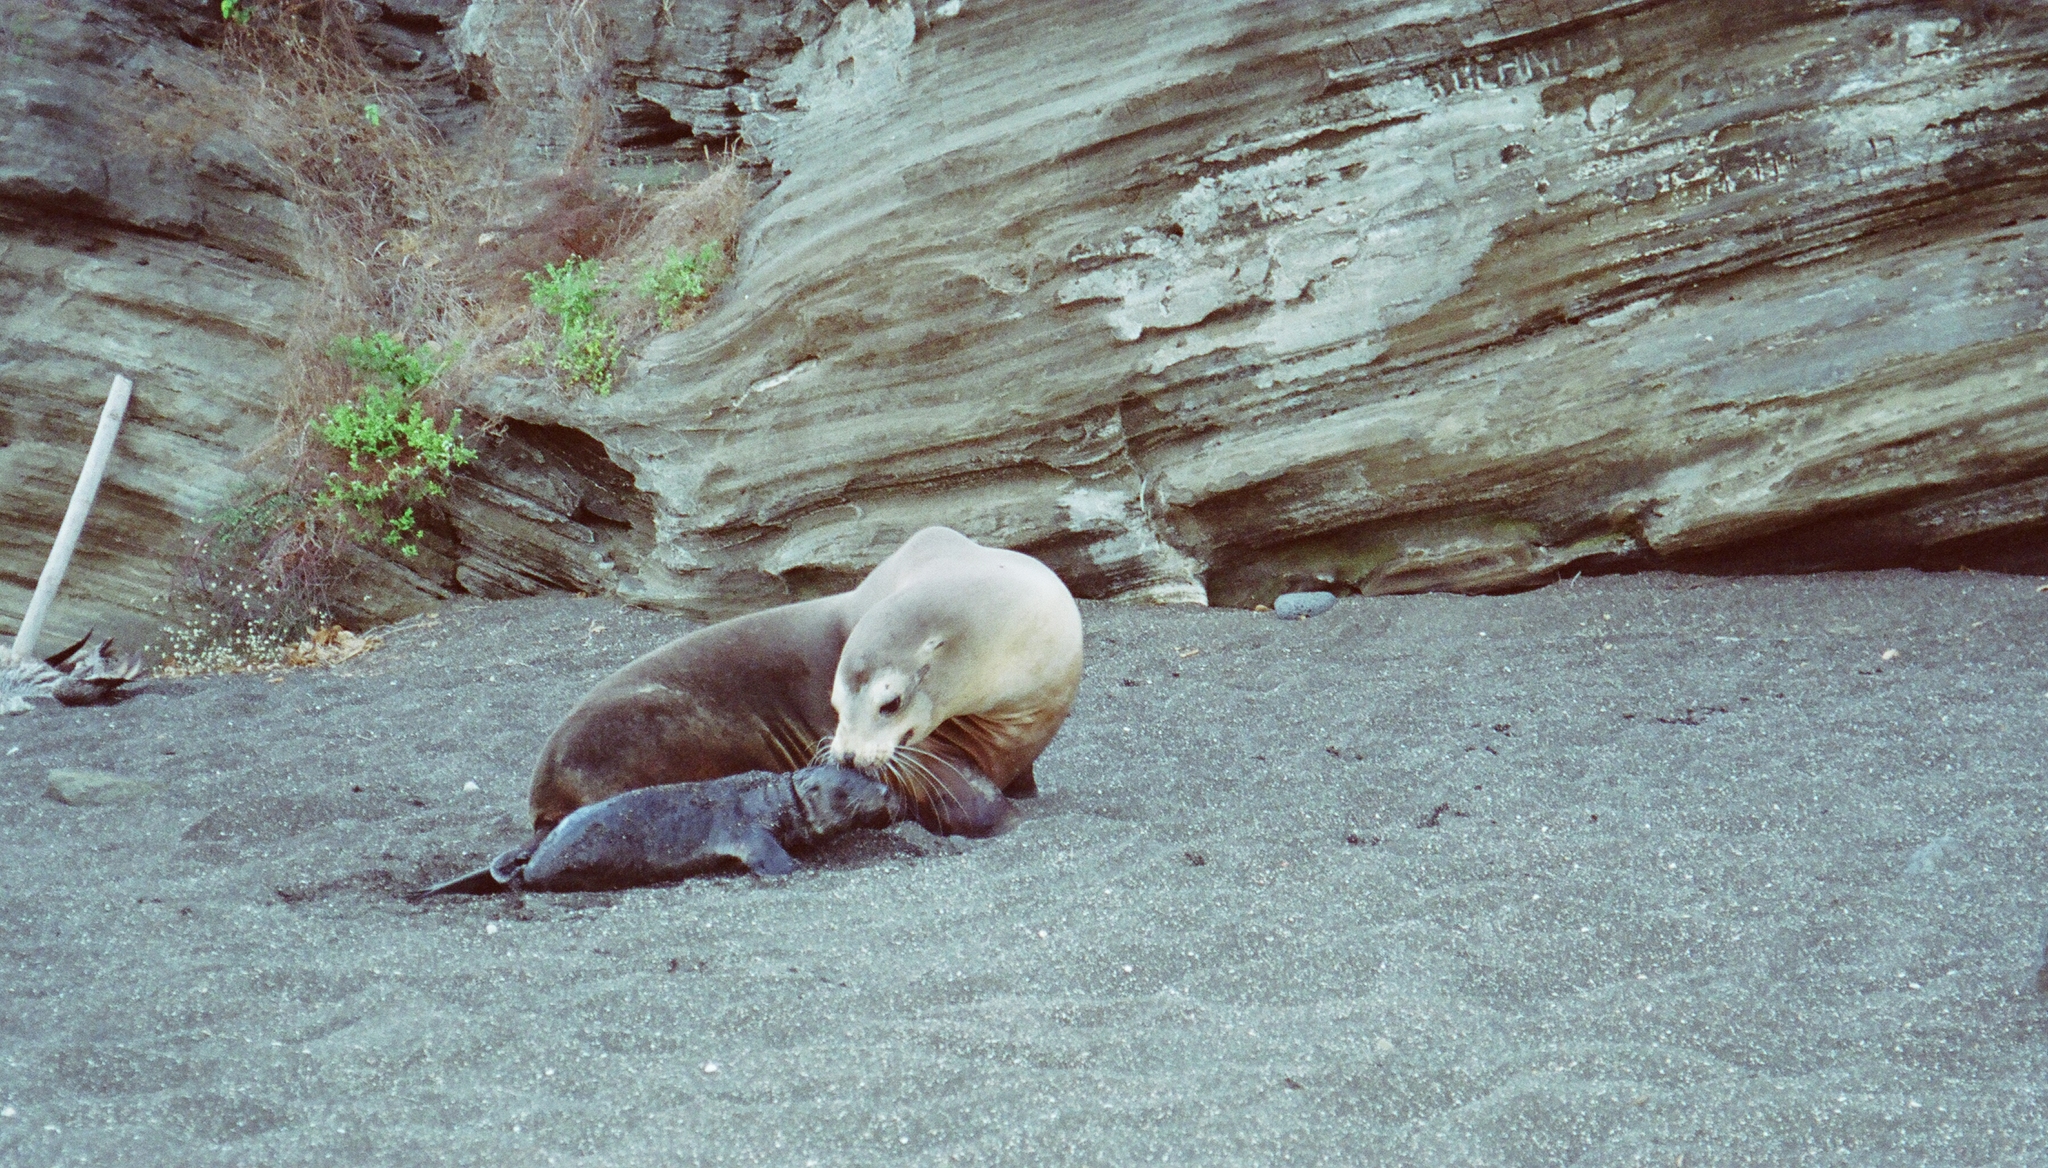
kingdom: Animalia
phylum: Chordata
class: Mammalia
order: Carnivora
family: Otariidae
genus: Zalophus
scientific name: Zalophus wollebaeki
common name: Galapagos sea lion
